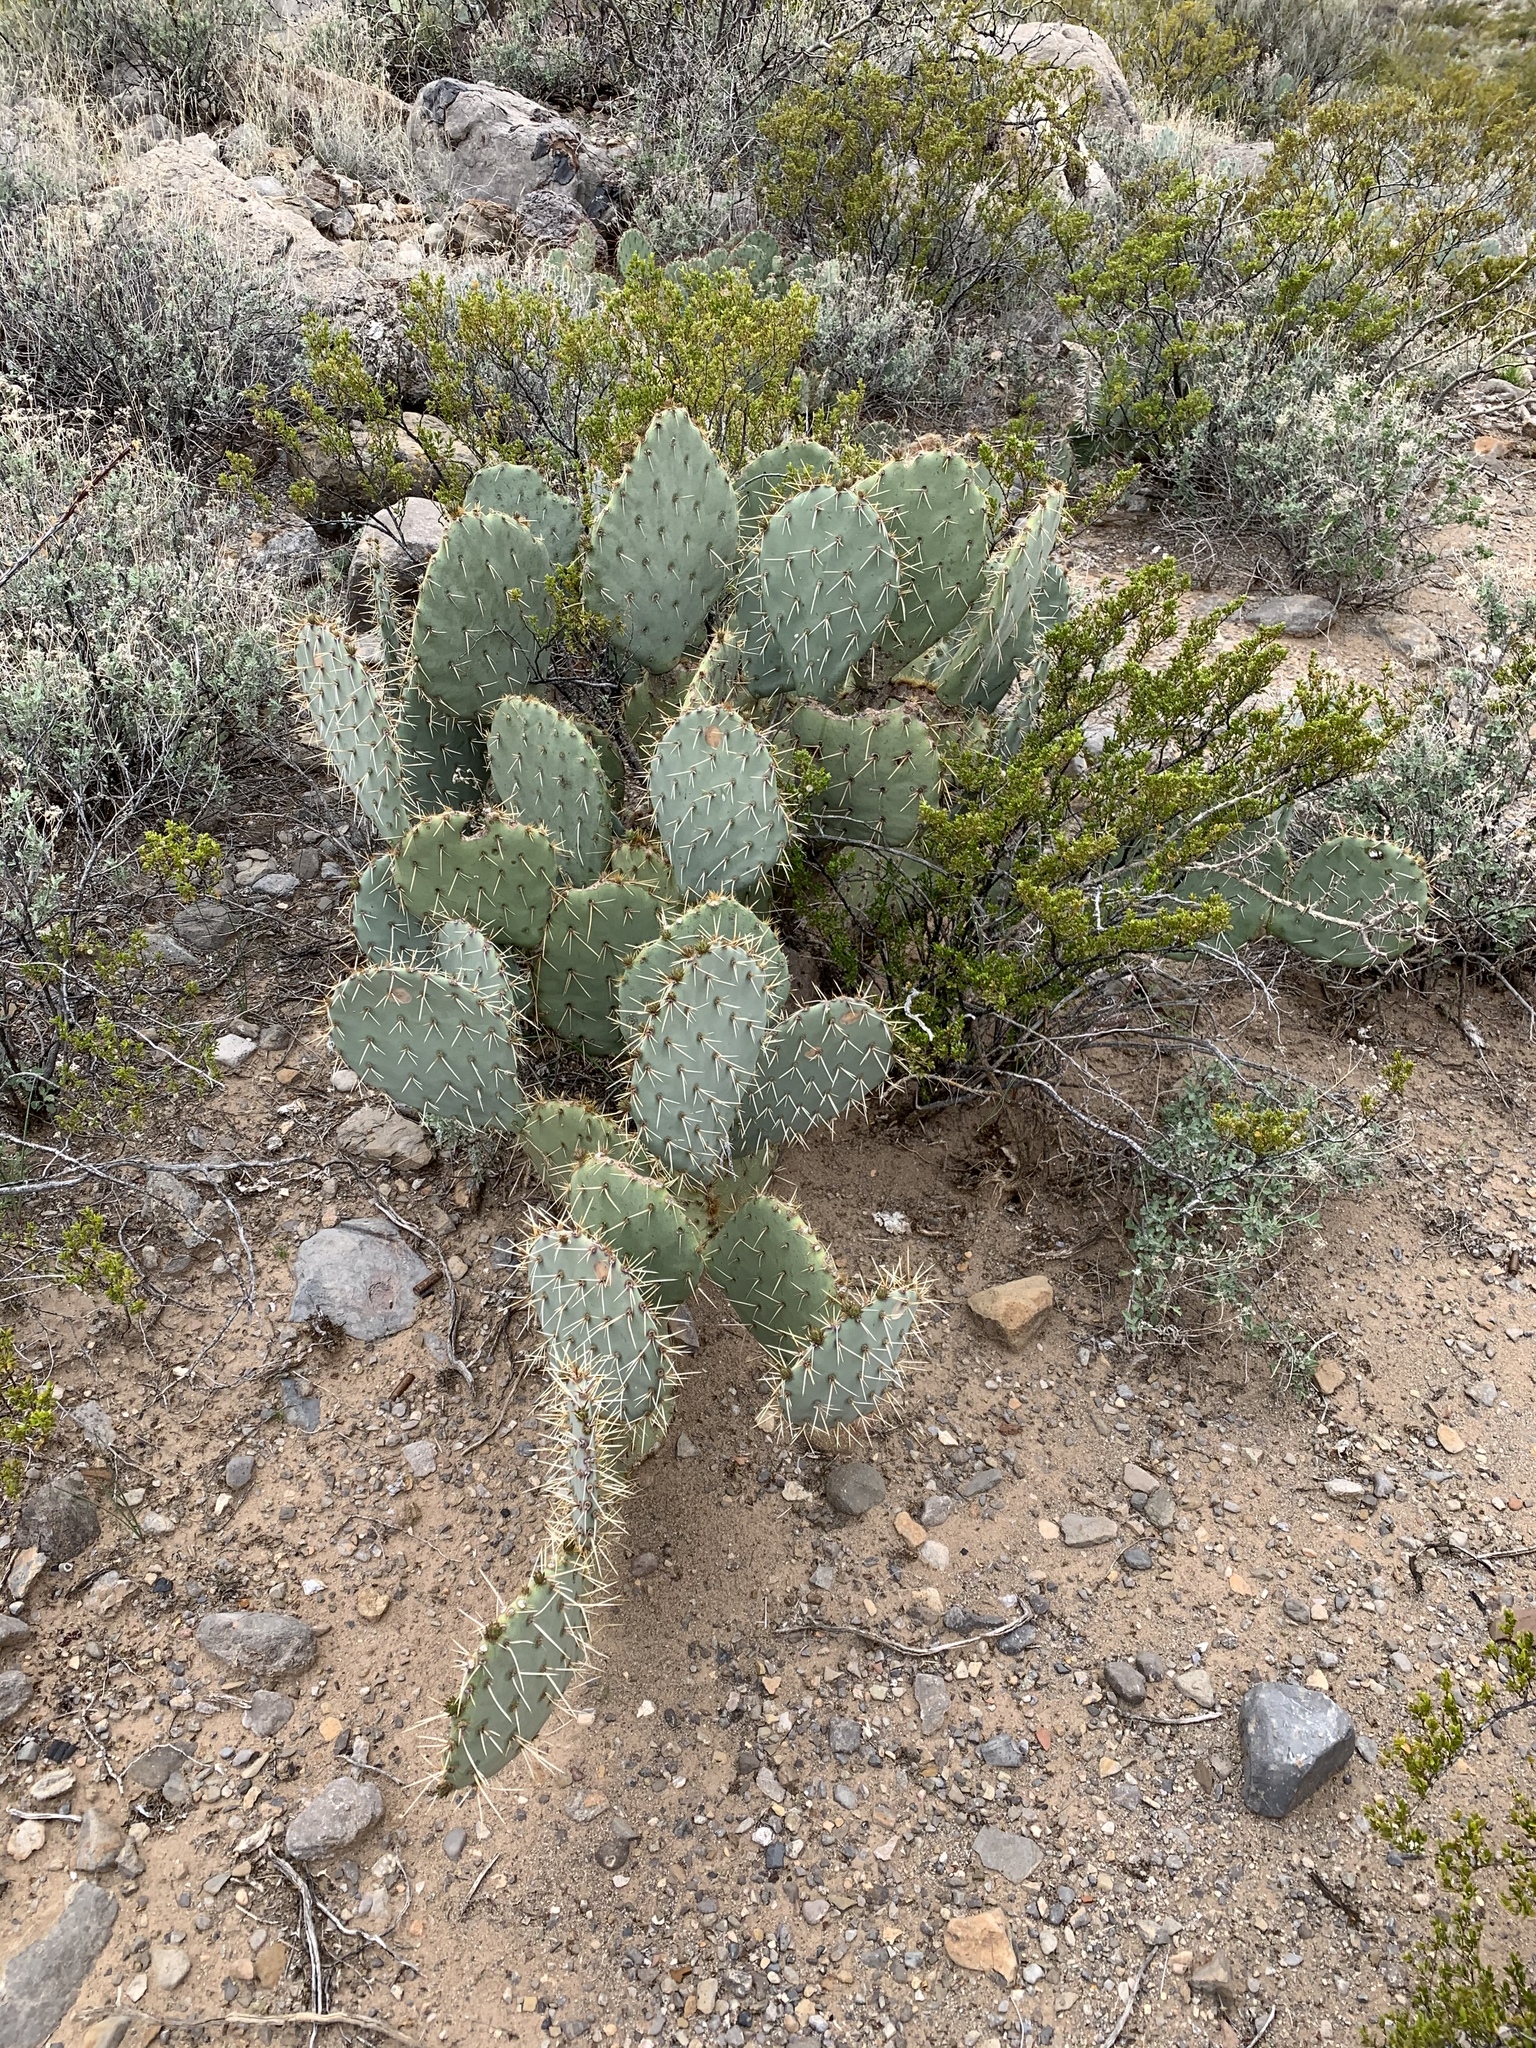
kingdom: Plantae
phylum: Tracheophyta
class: Magnoliopsida
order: Caryophyllales
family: Cactaceae
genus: Opuntia
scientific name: Opuntia engelmannii
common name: Cactus-apple
